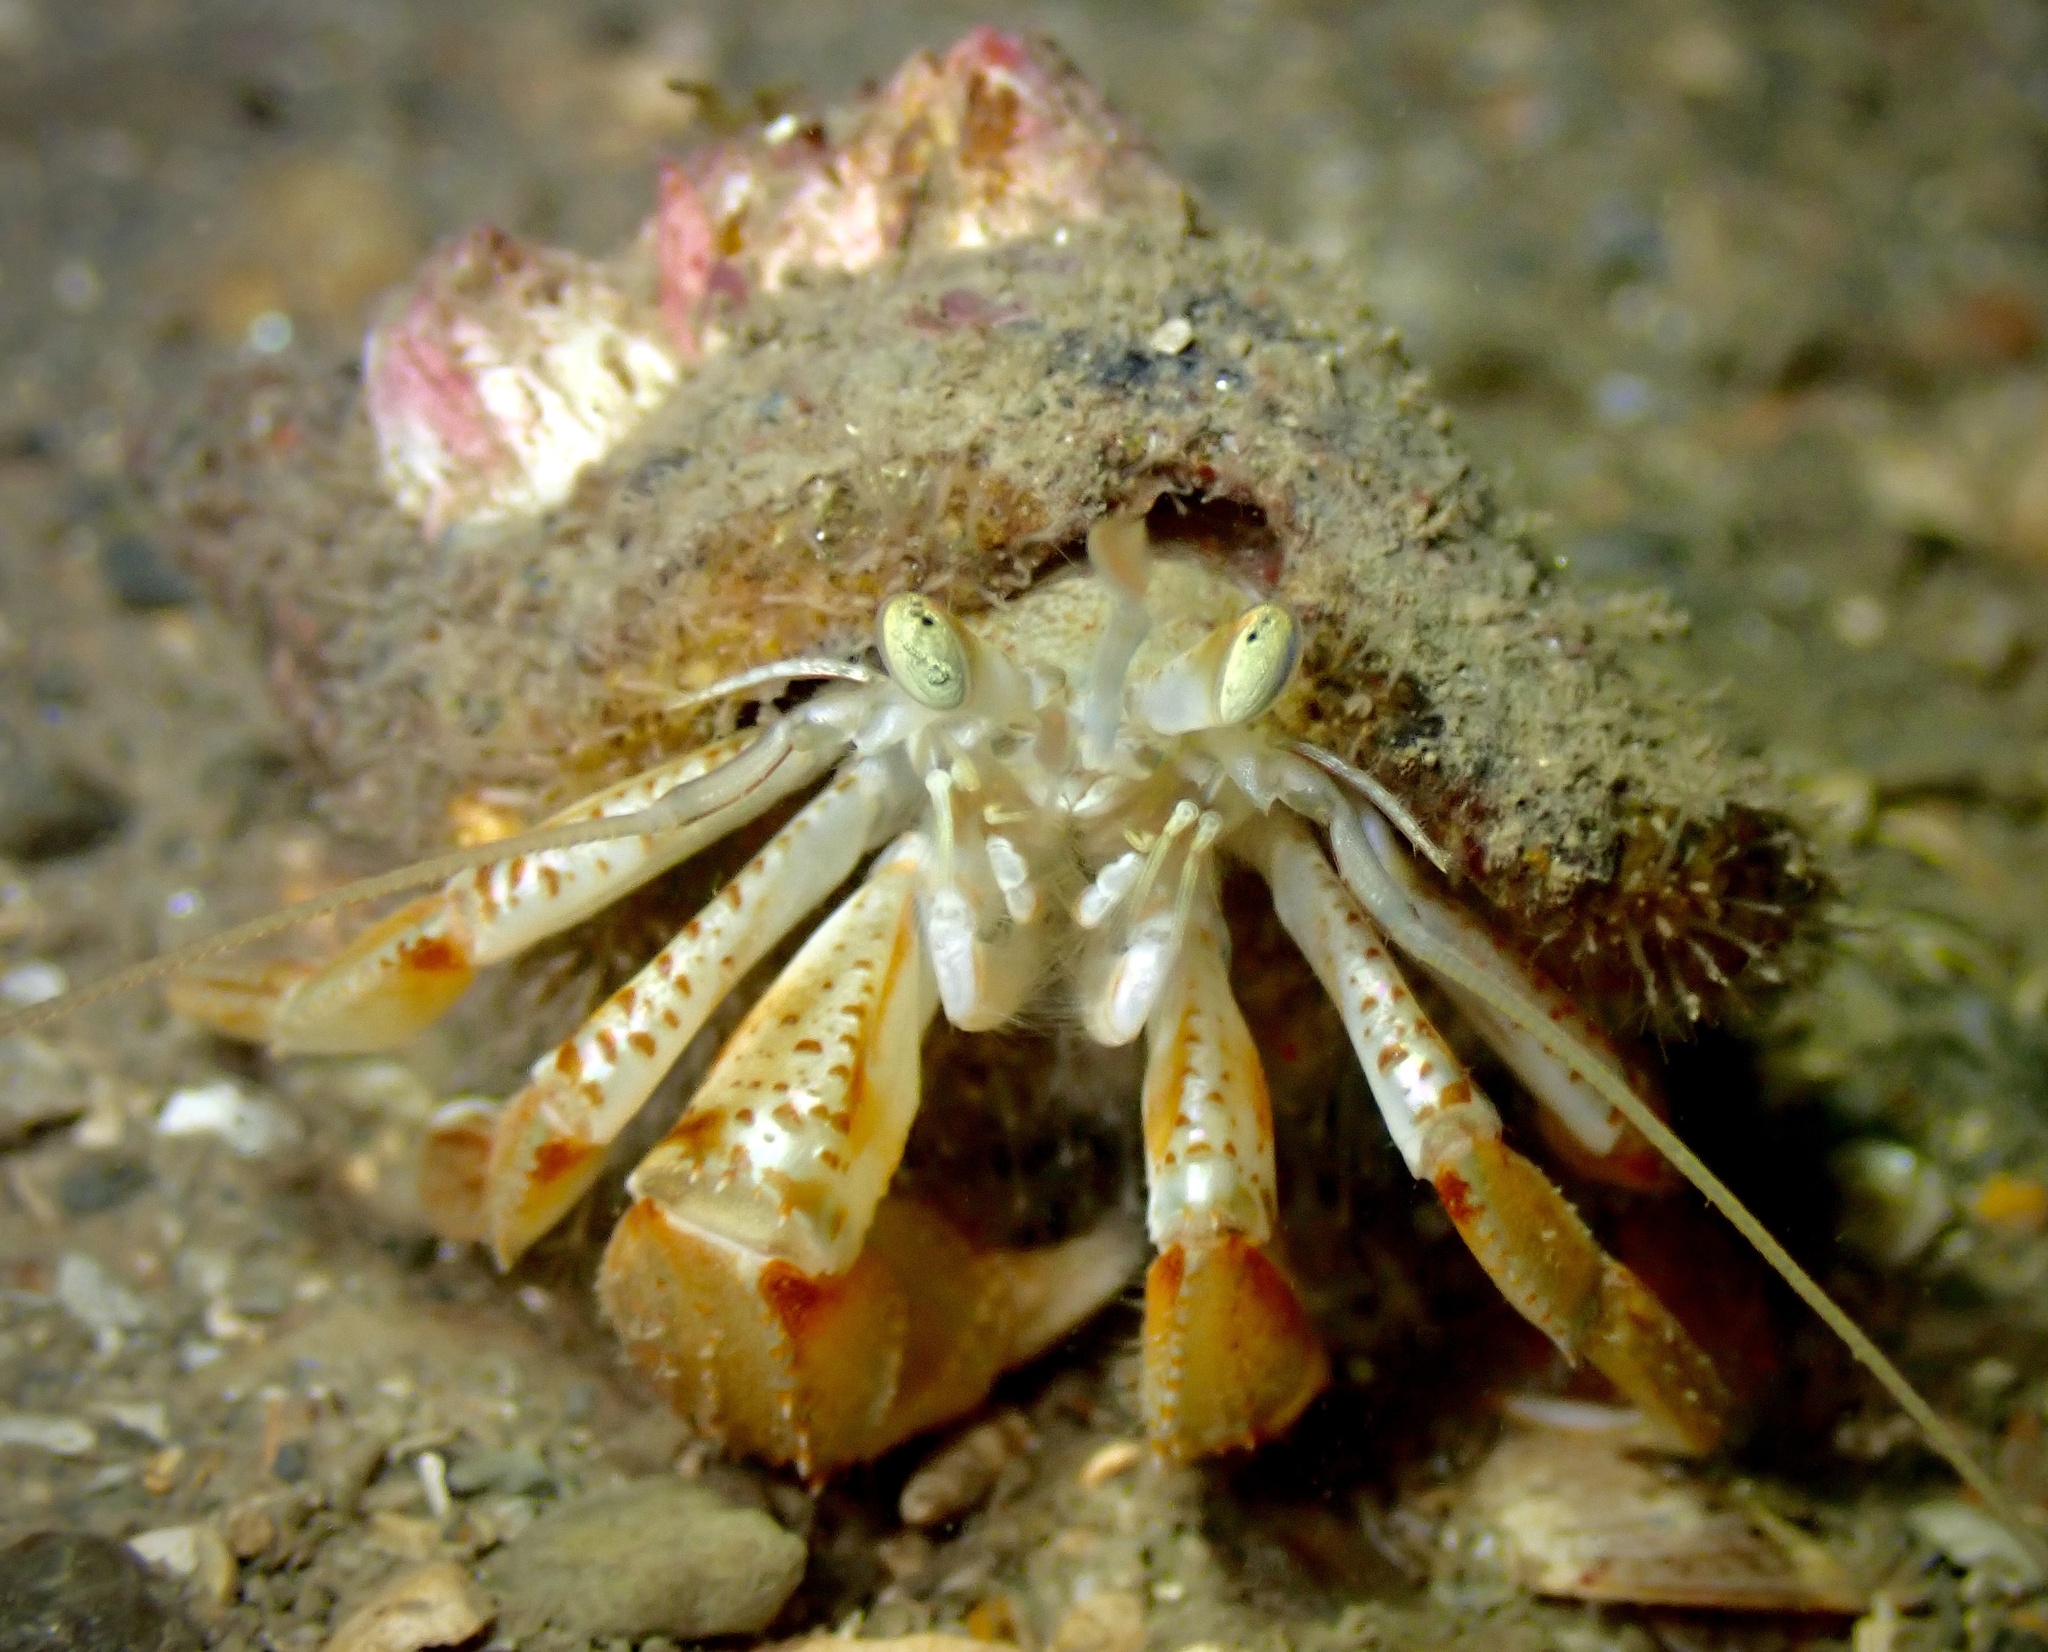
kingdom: Animalia
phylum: Arthropoda
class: Malacostraca
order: Decapoda
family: Paguridae
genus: Pagurus
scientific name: Pagurus bernhardus
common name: Hermit crab
